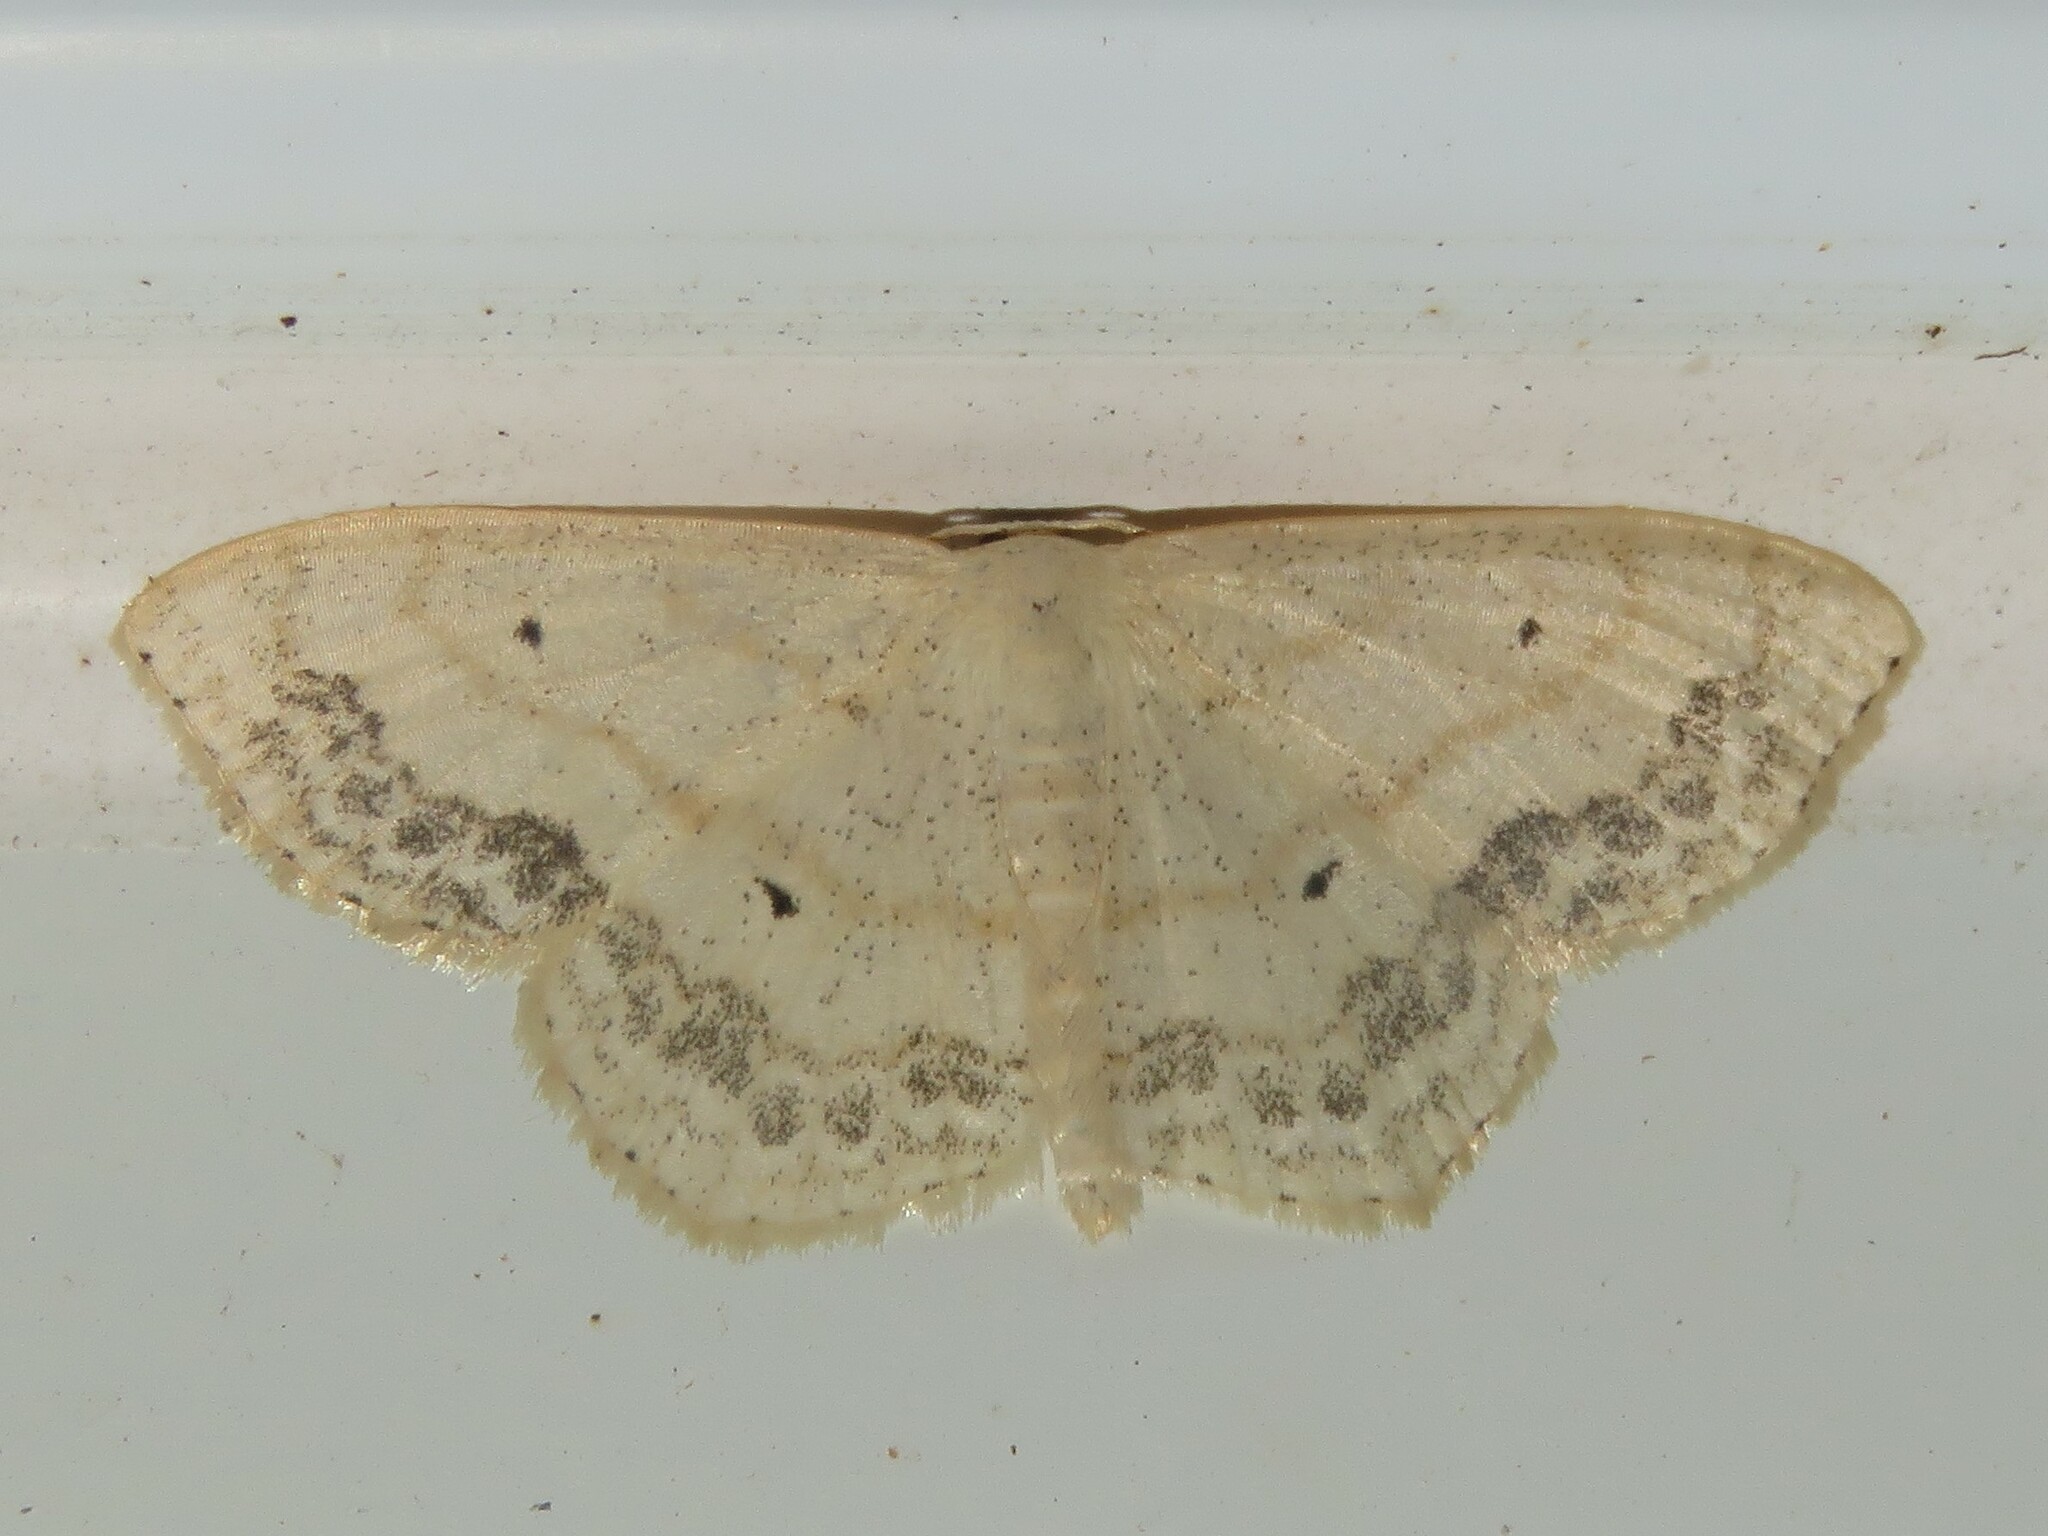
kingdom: Animalia
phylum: Arthropoda
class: Insecta
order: Lepidoptera
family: Geometridae
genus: Scopula
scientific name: Scopula limboundata
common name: Large lace border
